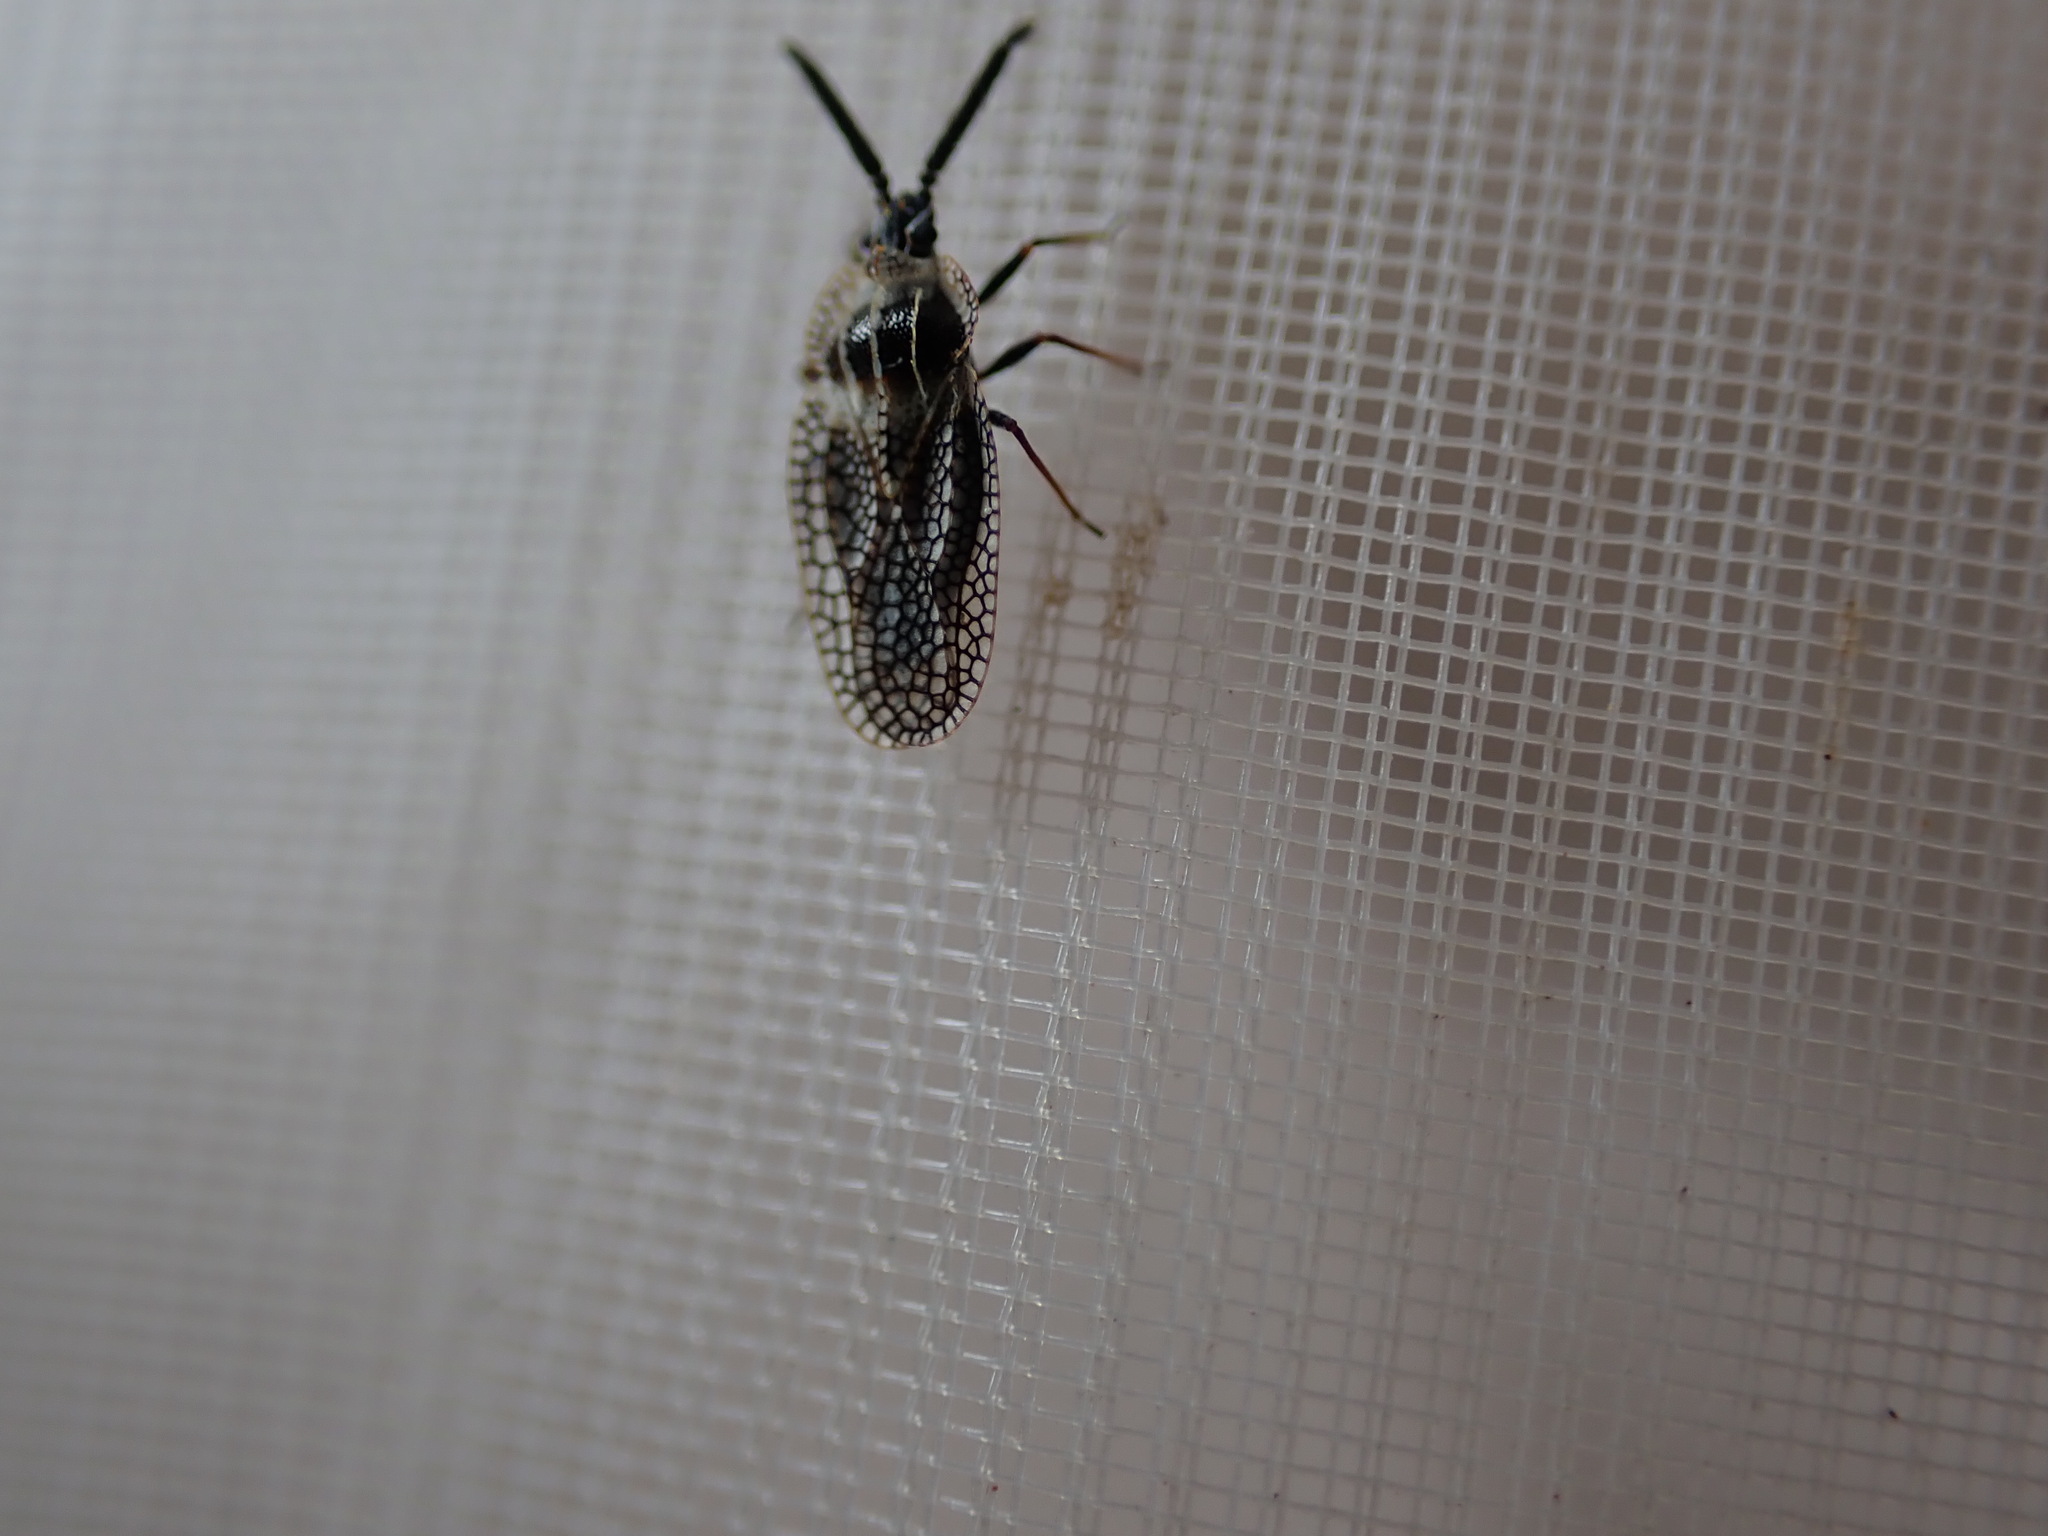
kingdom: Animalia
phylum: Arthropoda
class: Insecta
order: Hemiptera
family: Tingidae
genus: Dictyonota
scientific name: Dictyonota strichnocera
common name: Gorse lacebug
